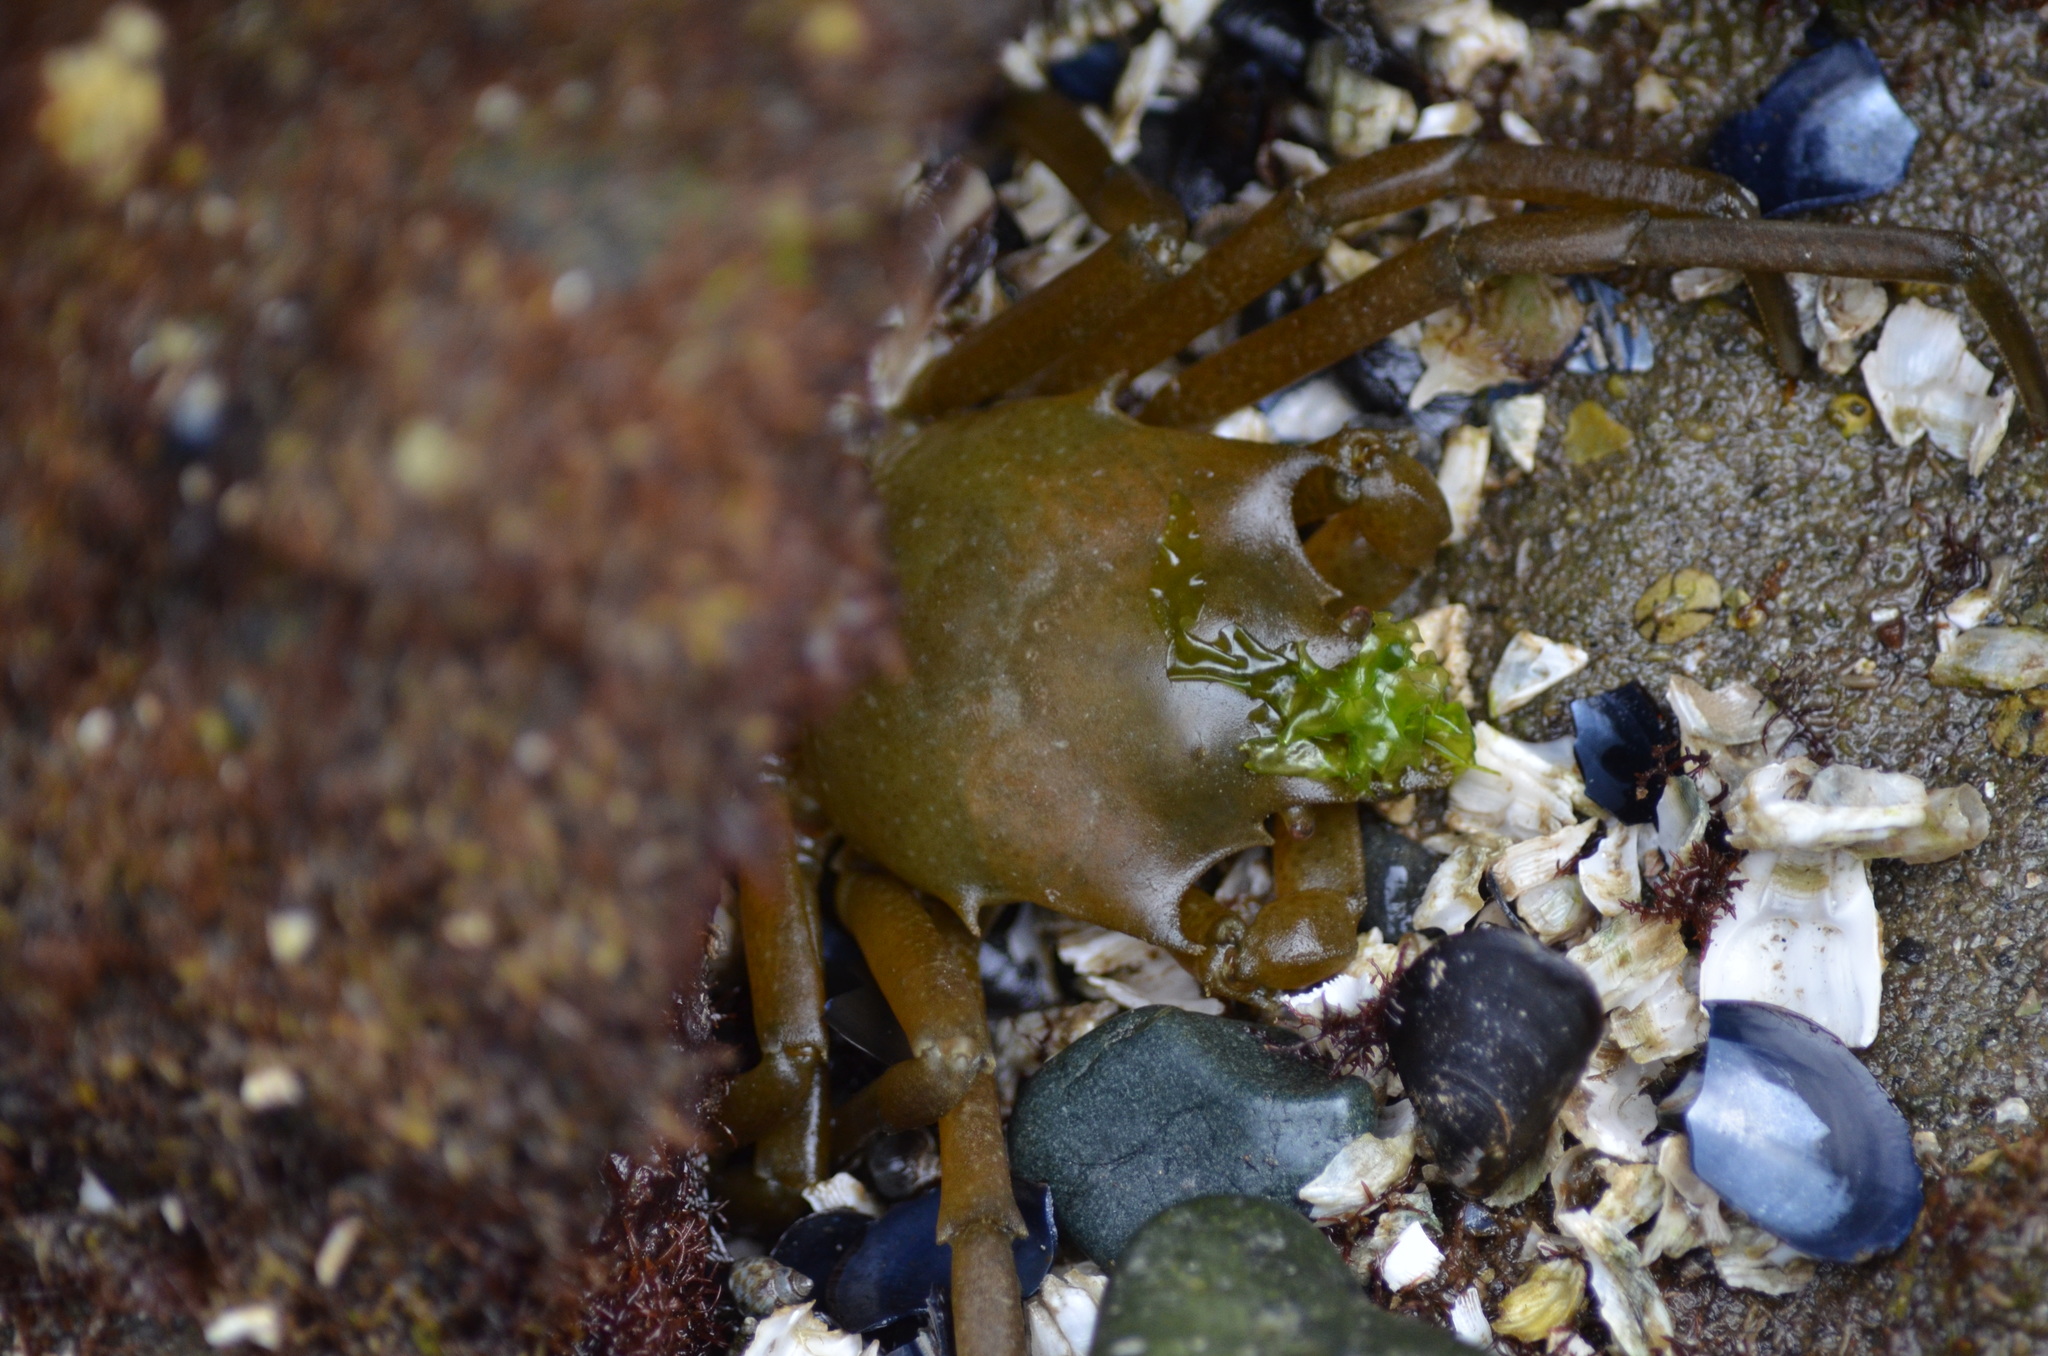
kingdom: Animalia
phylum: Arthropoda
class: Malacostraca
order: Decapoda
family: Epialtidae
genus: Pugettia
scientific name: Pugettia producta
